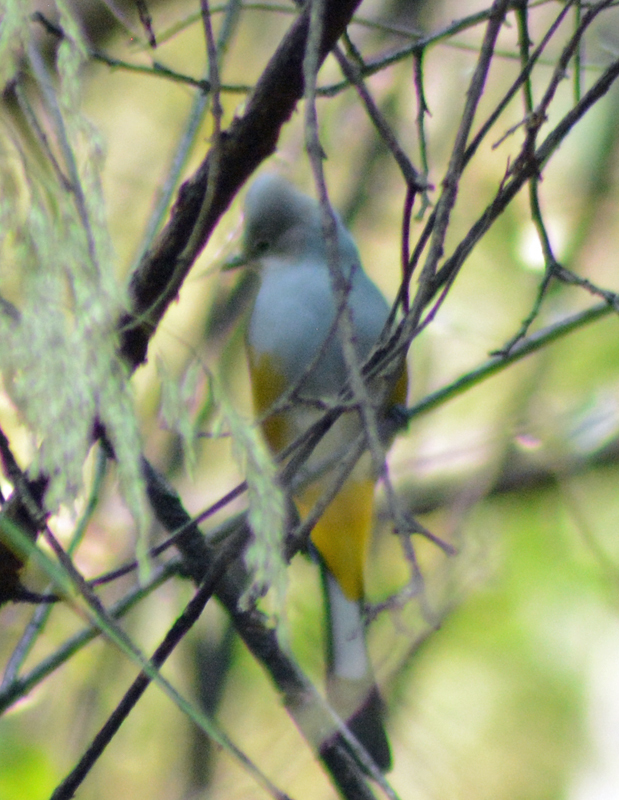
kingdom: Animalia
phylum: Chordata
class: Aves
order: Passeriformes
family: Ptilogonatidae
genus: Ptilogonys
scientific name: Ptilogonys cinereus
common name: Gray silky-flycatcher
